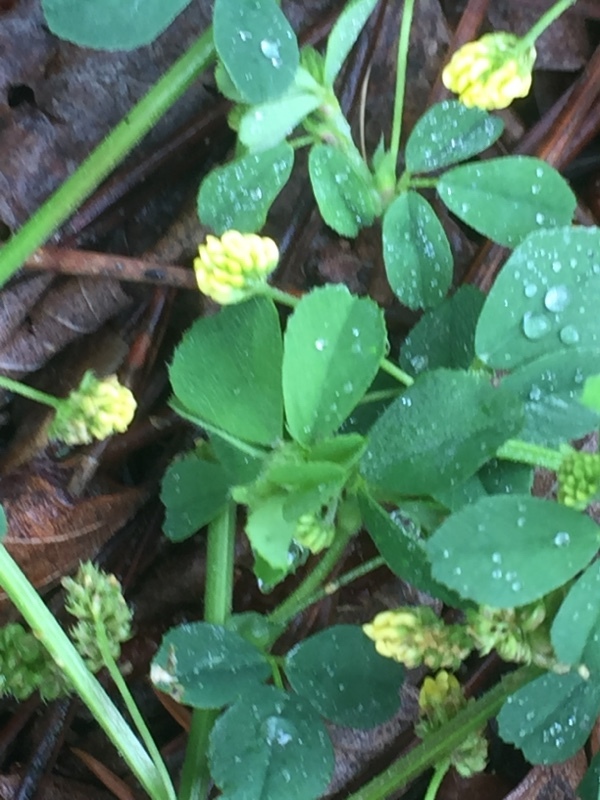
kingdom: Plantae
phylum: Tracheophyta
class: Magnoliopsida
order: Fabales
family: Fabaceae
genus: Medicago
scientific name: Medicago lupulina
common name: Black medick
